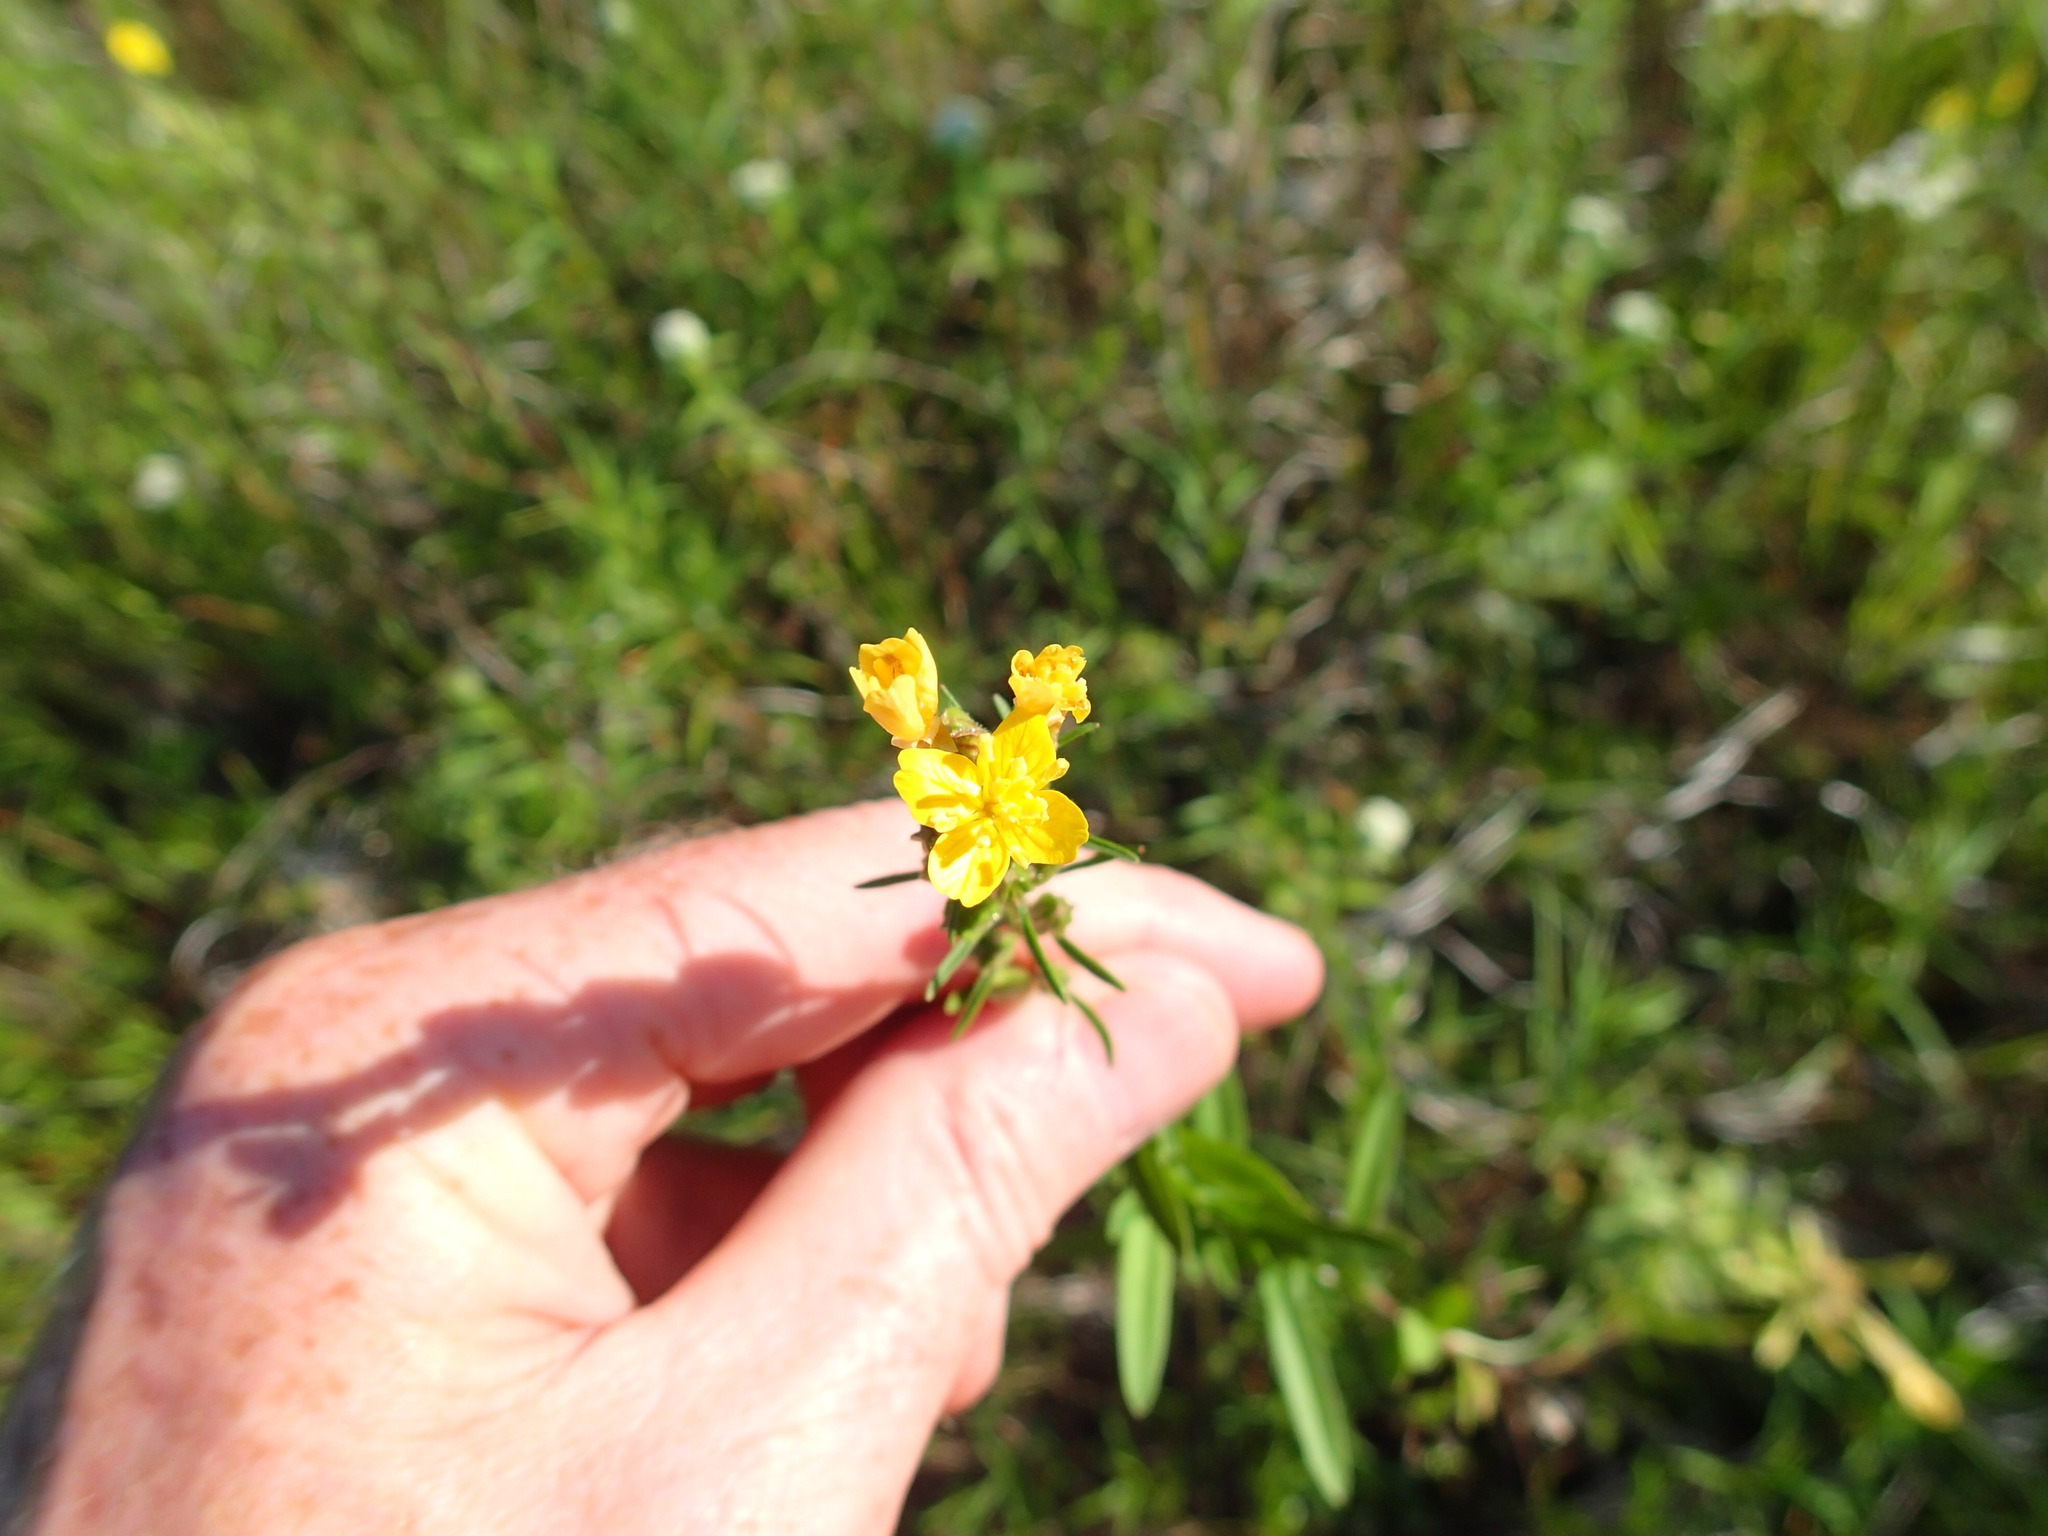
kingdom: Plantae
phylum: Tracheophyta
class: Magnoliopsida
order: Myrtales
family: Onagraceae
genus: Oenothera
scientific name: Oenothera perennis
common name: Small sundrops
